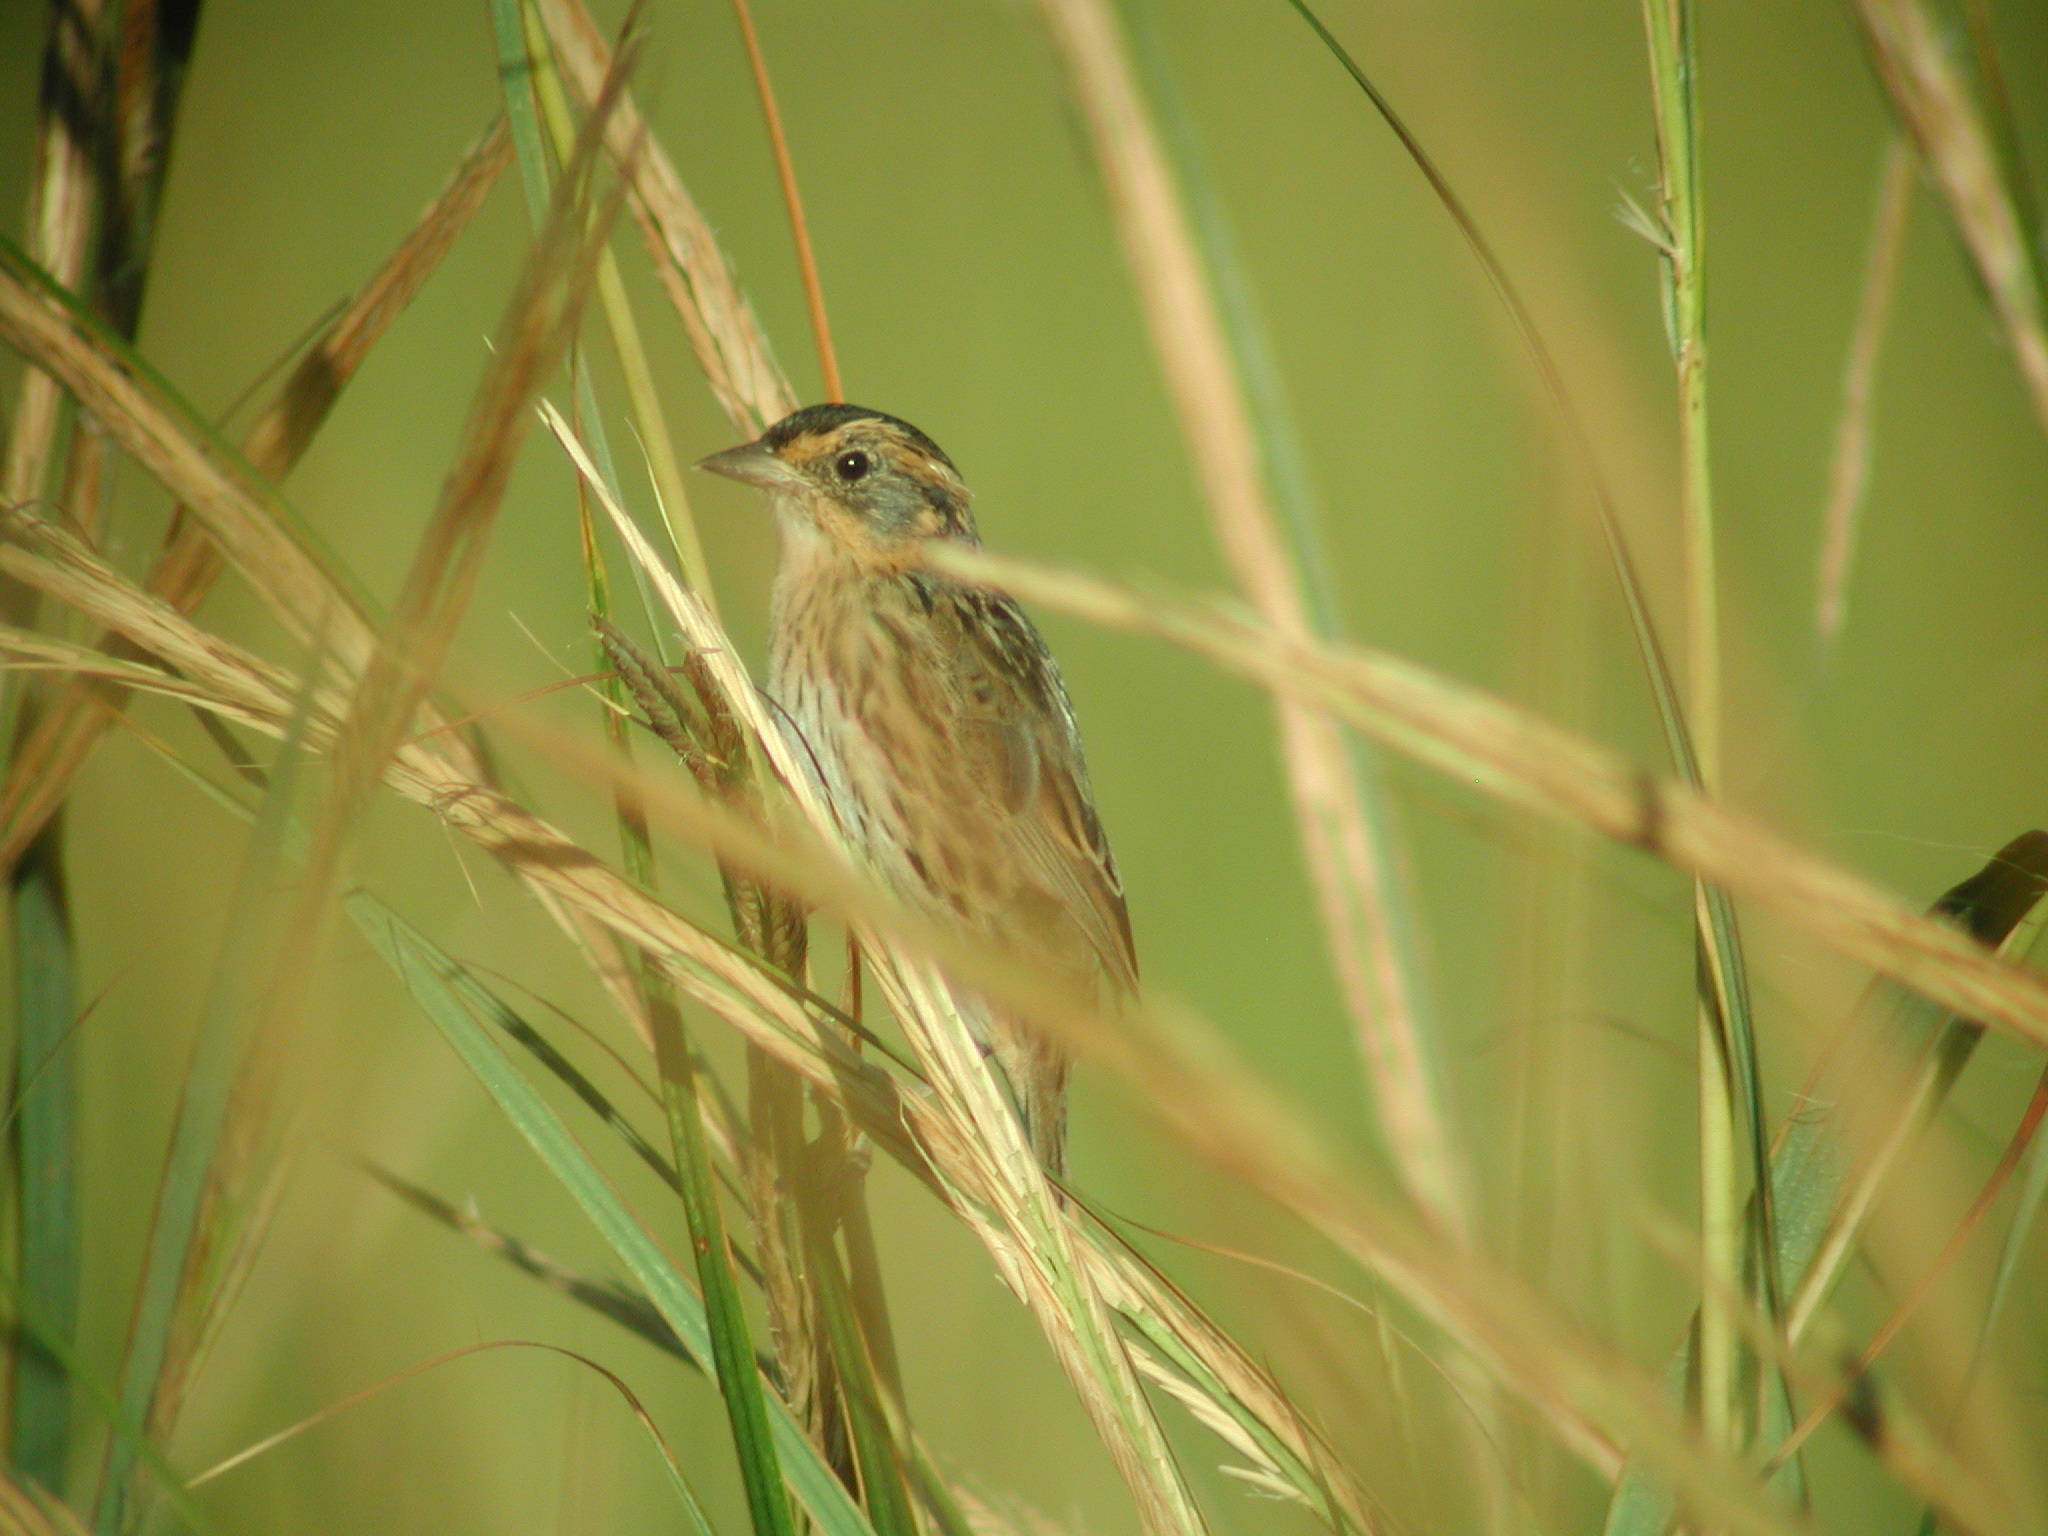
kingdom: Animalia
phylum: Chordata
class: Aves
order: Passeriformes
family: Passerellidae
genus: Ammospiza
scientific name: Ammospiza nelsoni
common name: Nelson's sparrow
